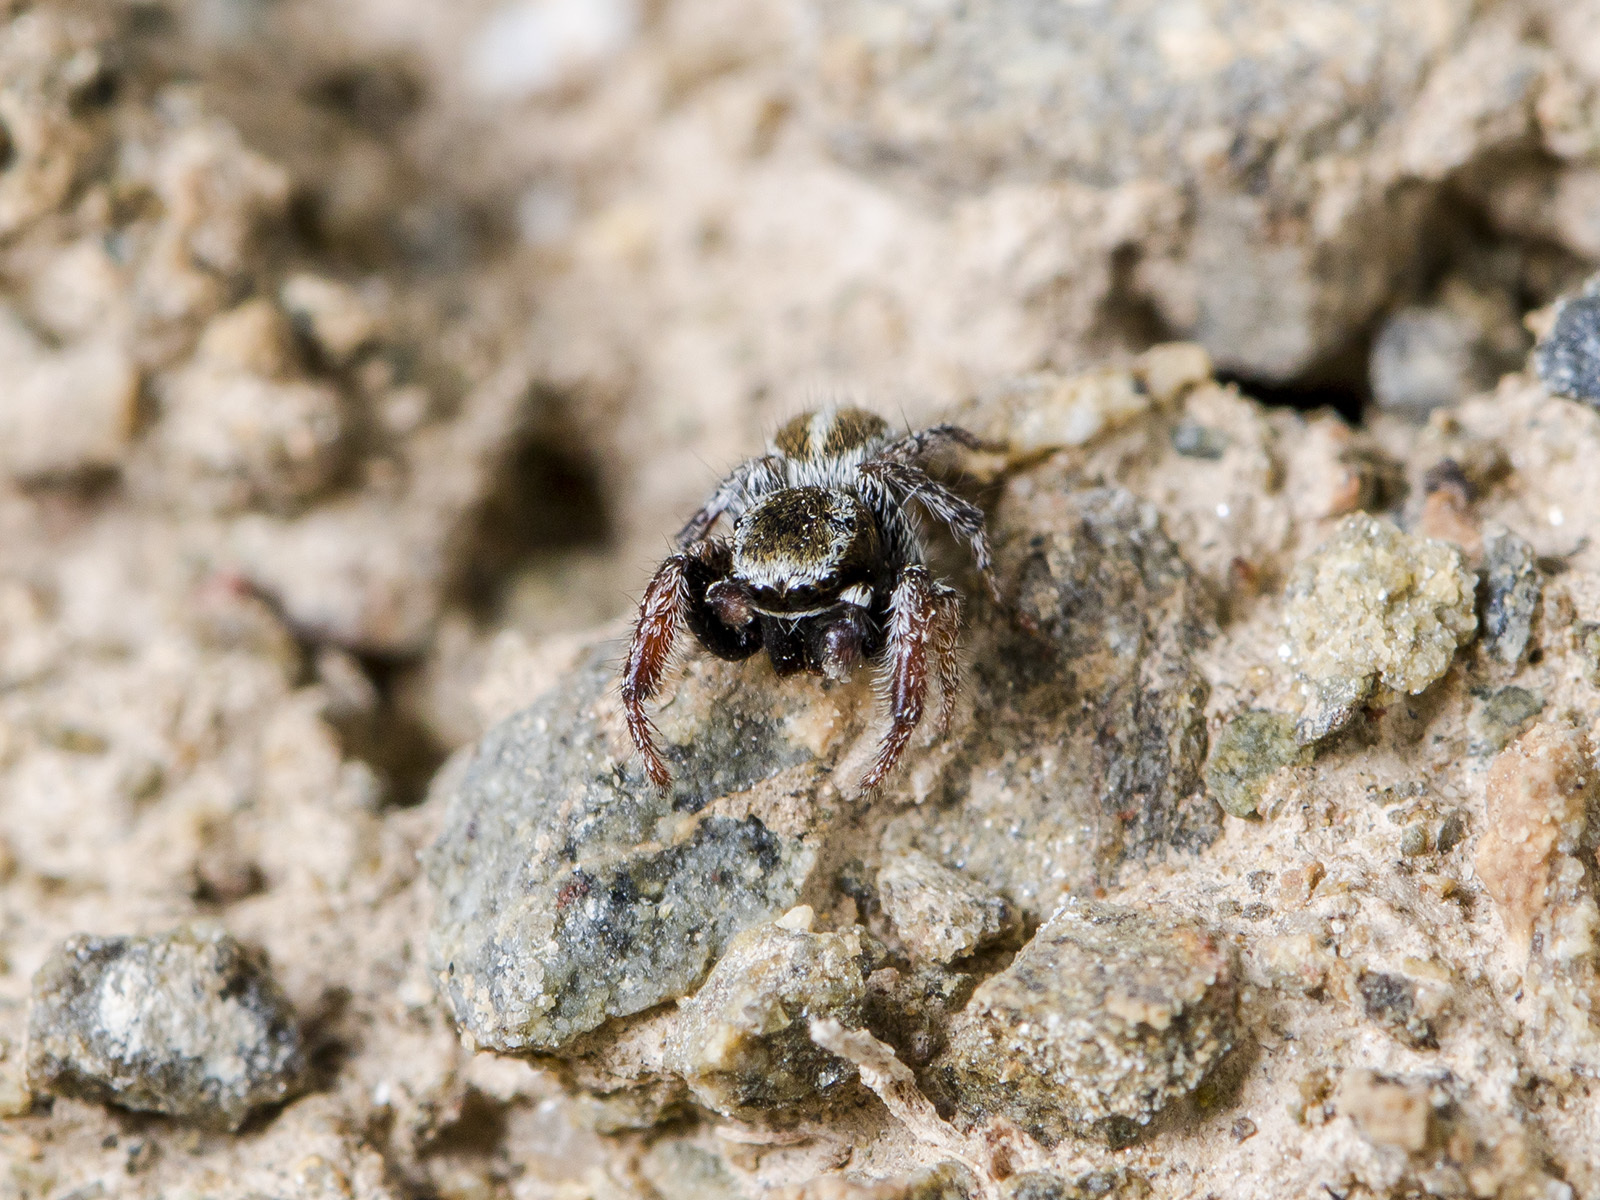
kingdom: Animalia
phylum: Arthropoda
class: Arachnida
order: Araneae
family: Salticidae
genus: Pellenes
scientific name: Pellenes epularis
